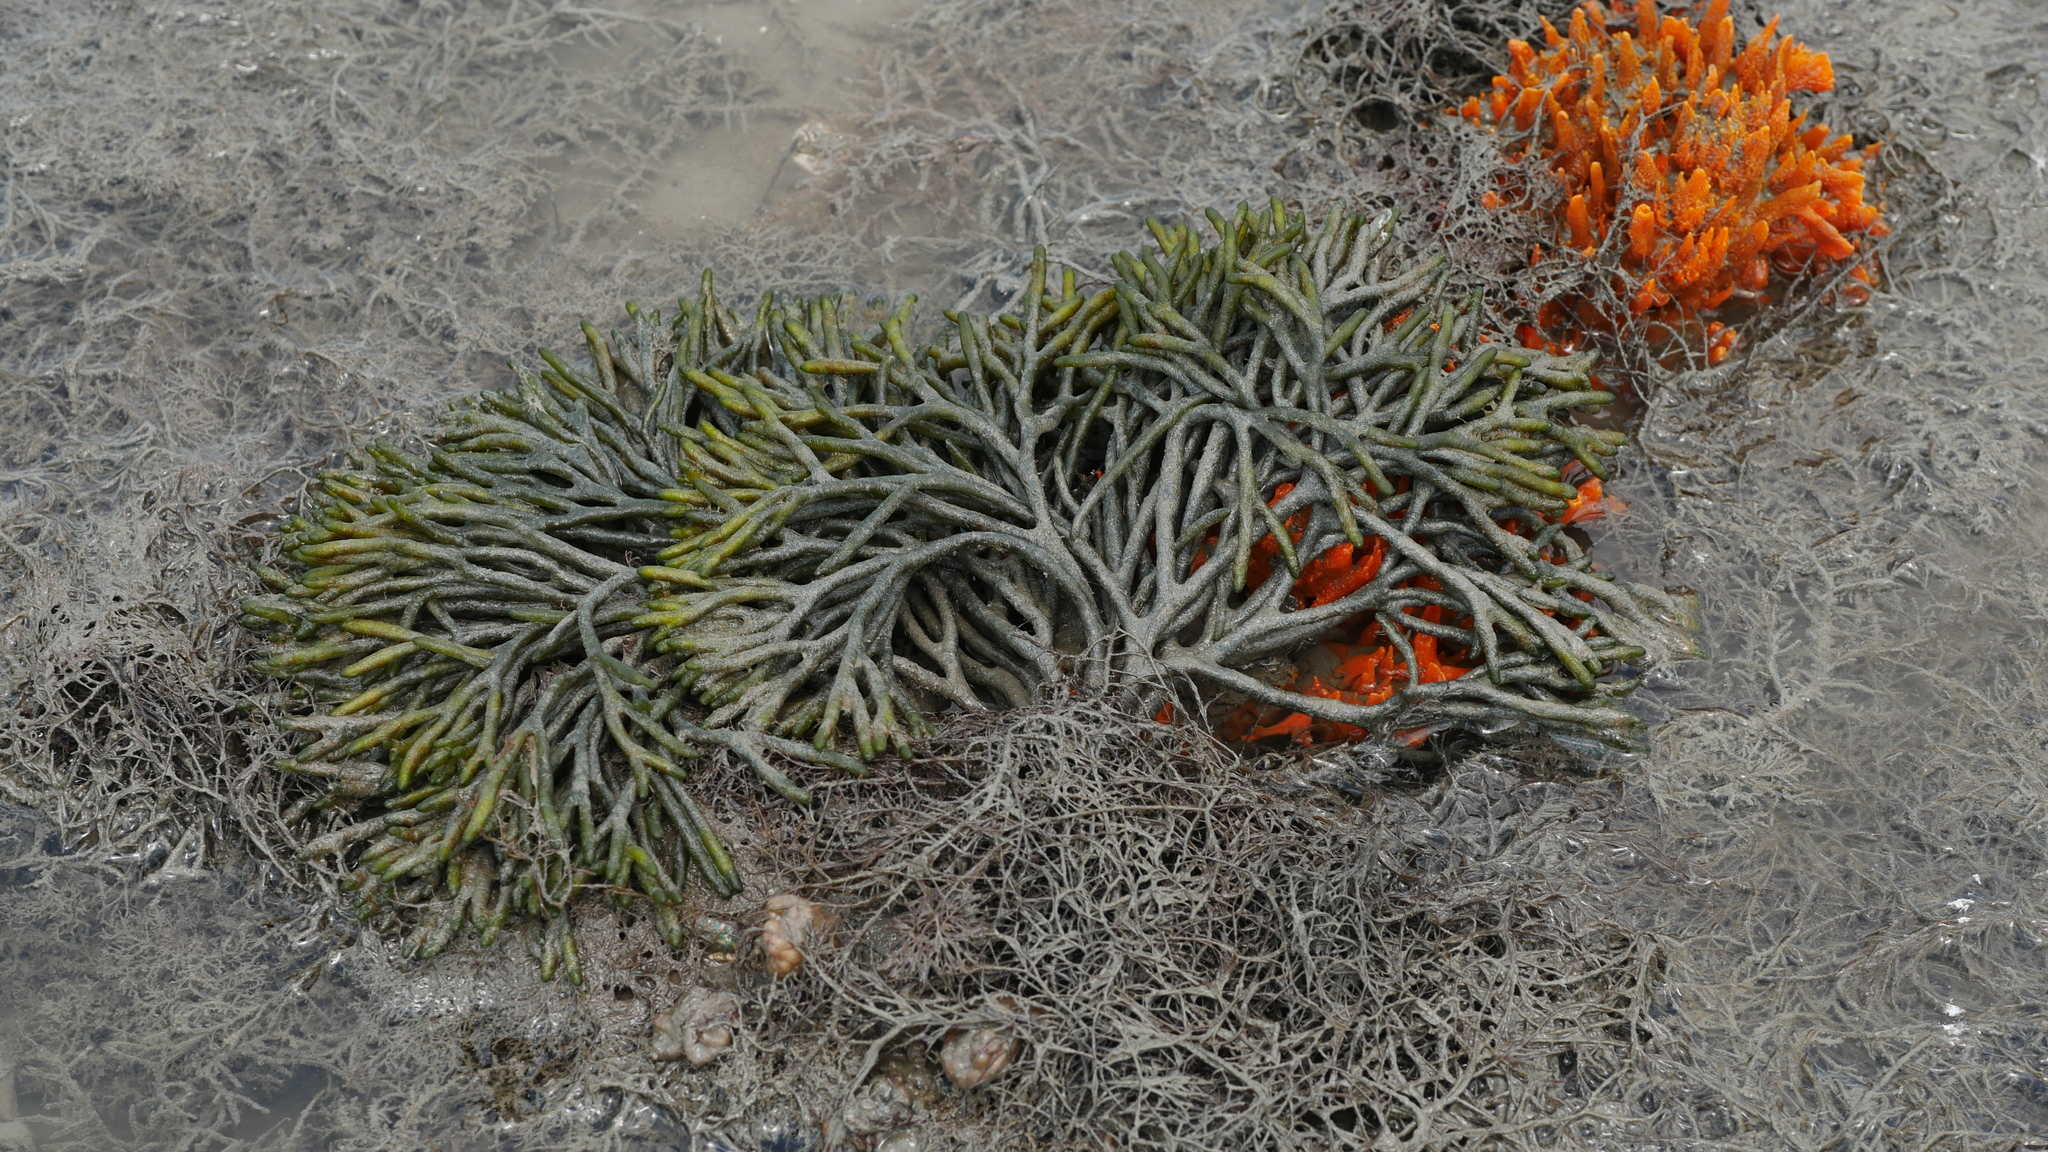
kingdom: Plantae
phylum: Chlorophyta
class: Ulvophyceae
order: Bryopsidales
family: Codiaceae
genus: Codium
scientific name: Codium fragile
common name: Dead man's fingers
